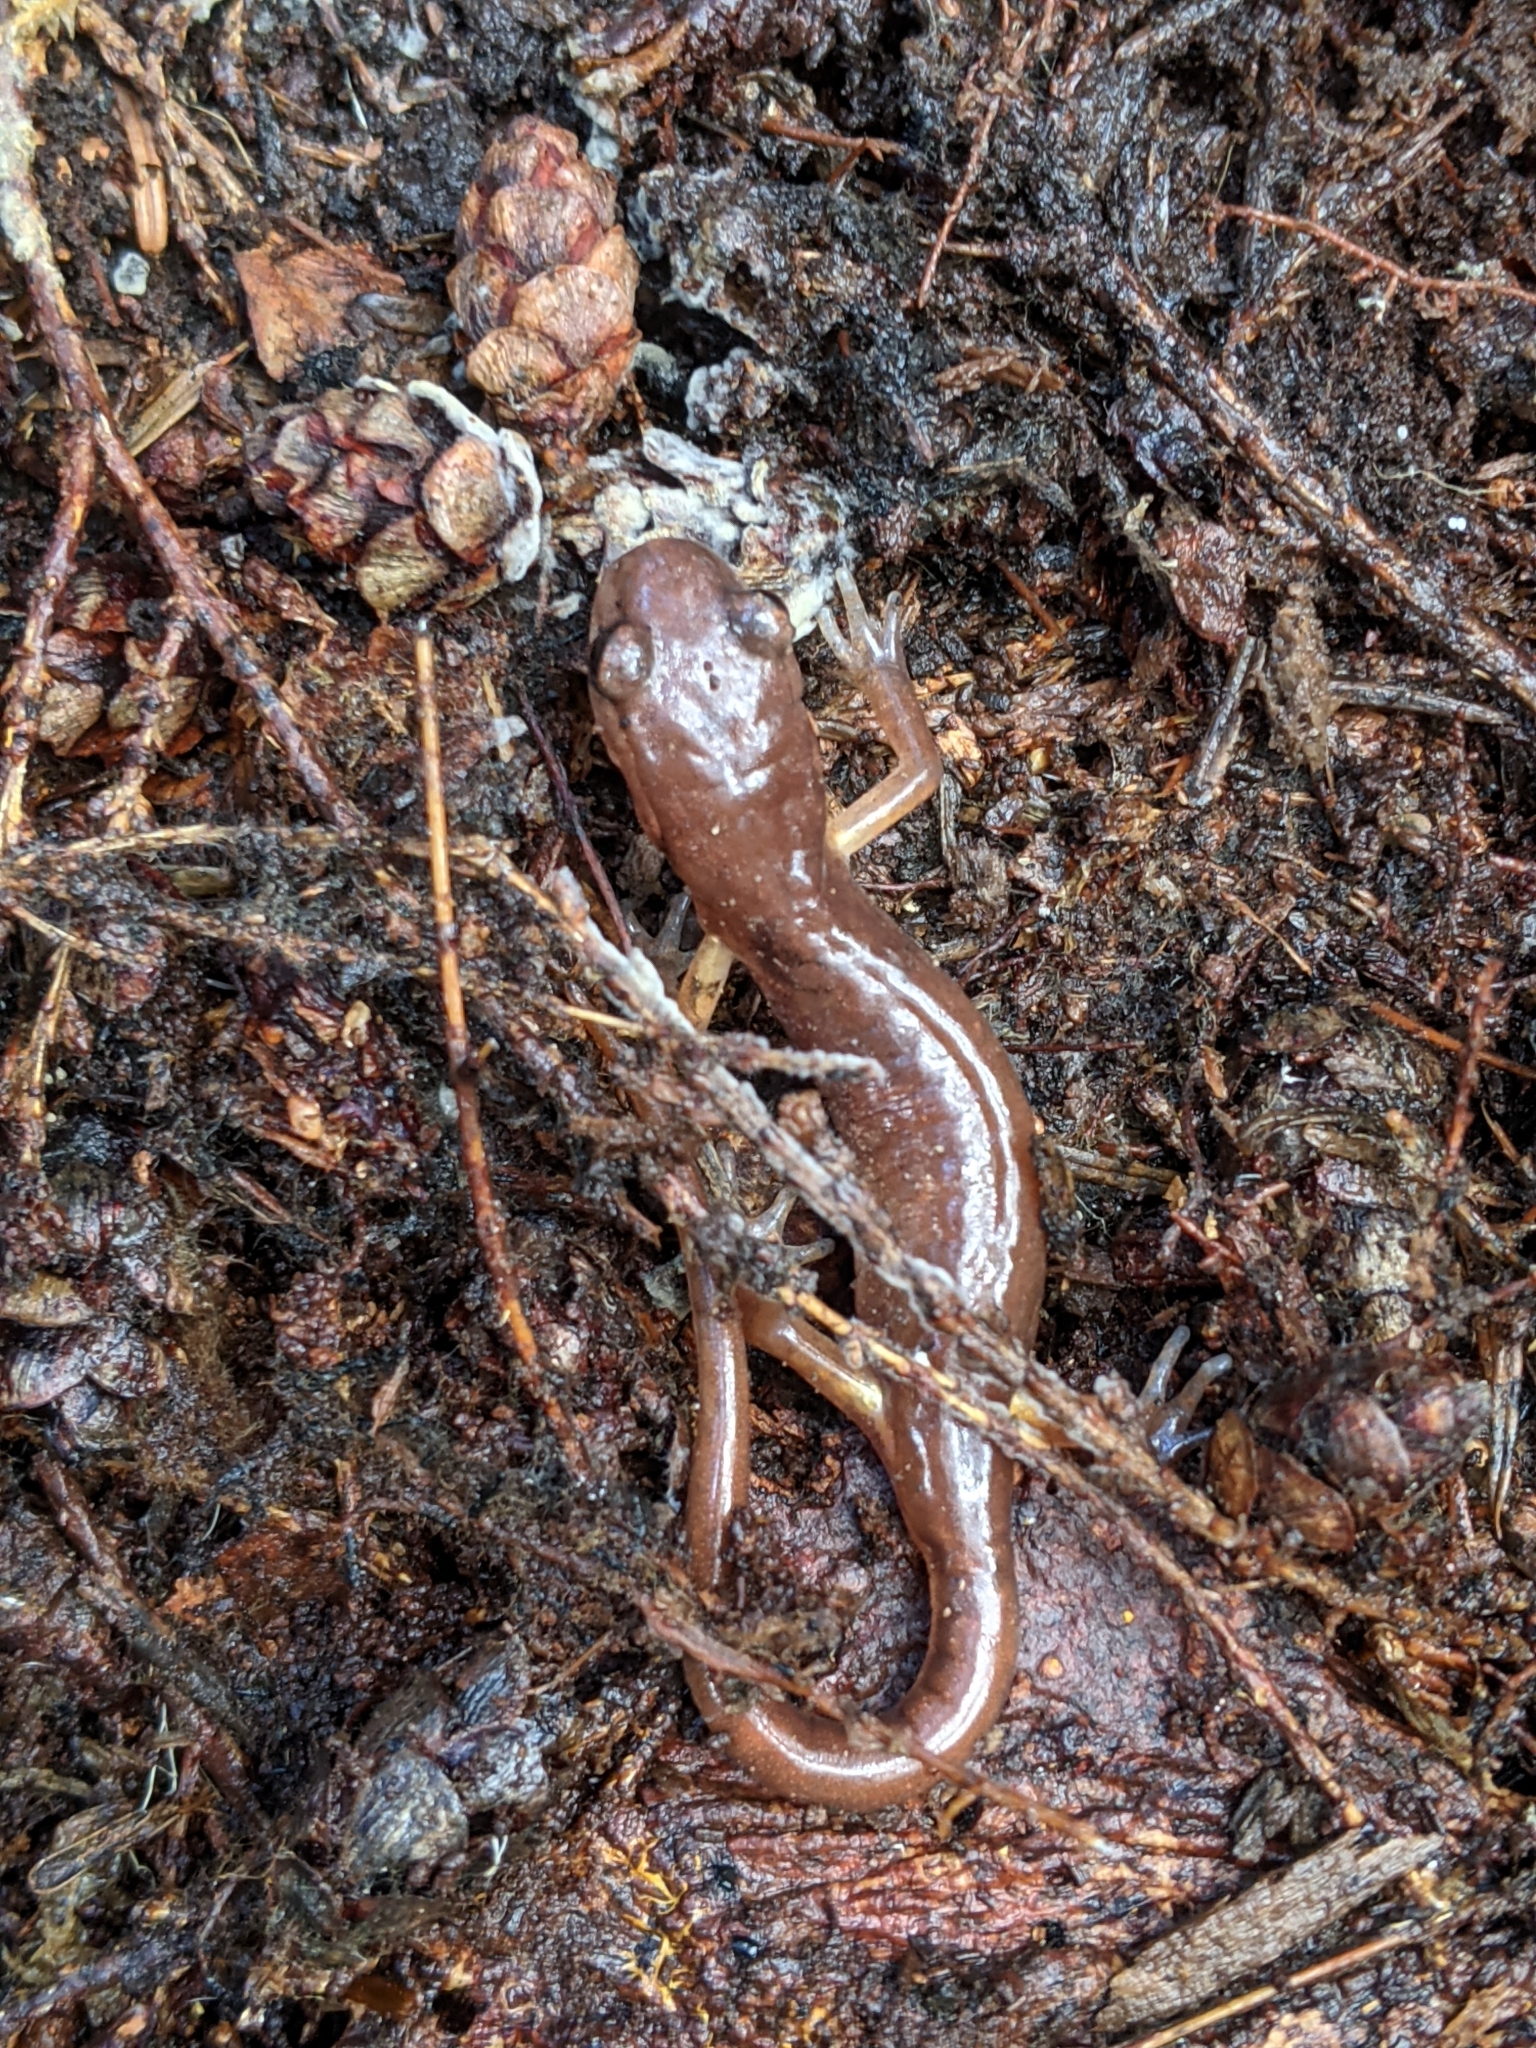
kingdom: Animalia
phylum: Chordata
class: Amphibia
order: Caudata
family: Plethodontidae
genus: Ensatina
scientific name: Ensatina eschscholtzii
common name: Ensatina
